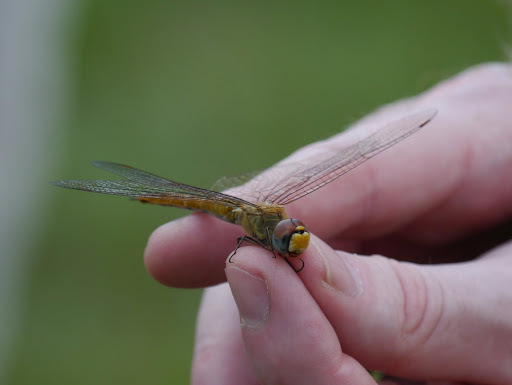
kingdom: Animalia
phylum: Arthropoda
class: Insecta
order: Odonata
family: Libellulidae
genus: Pantala
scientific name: Pantala flavescens
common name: Wandering glider
